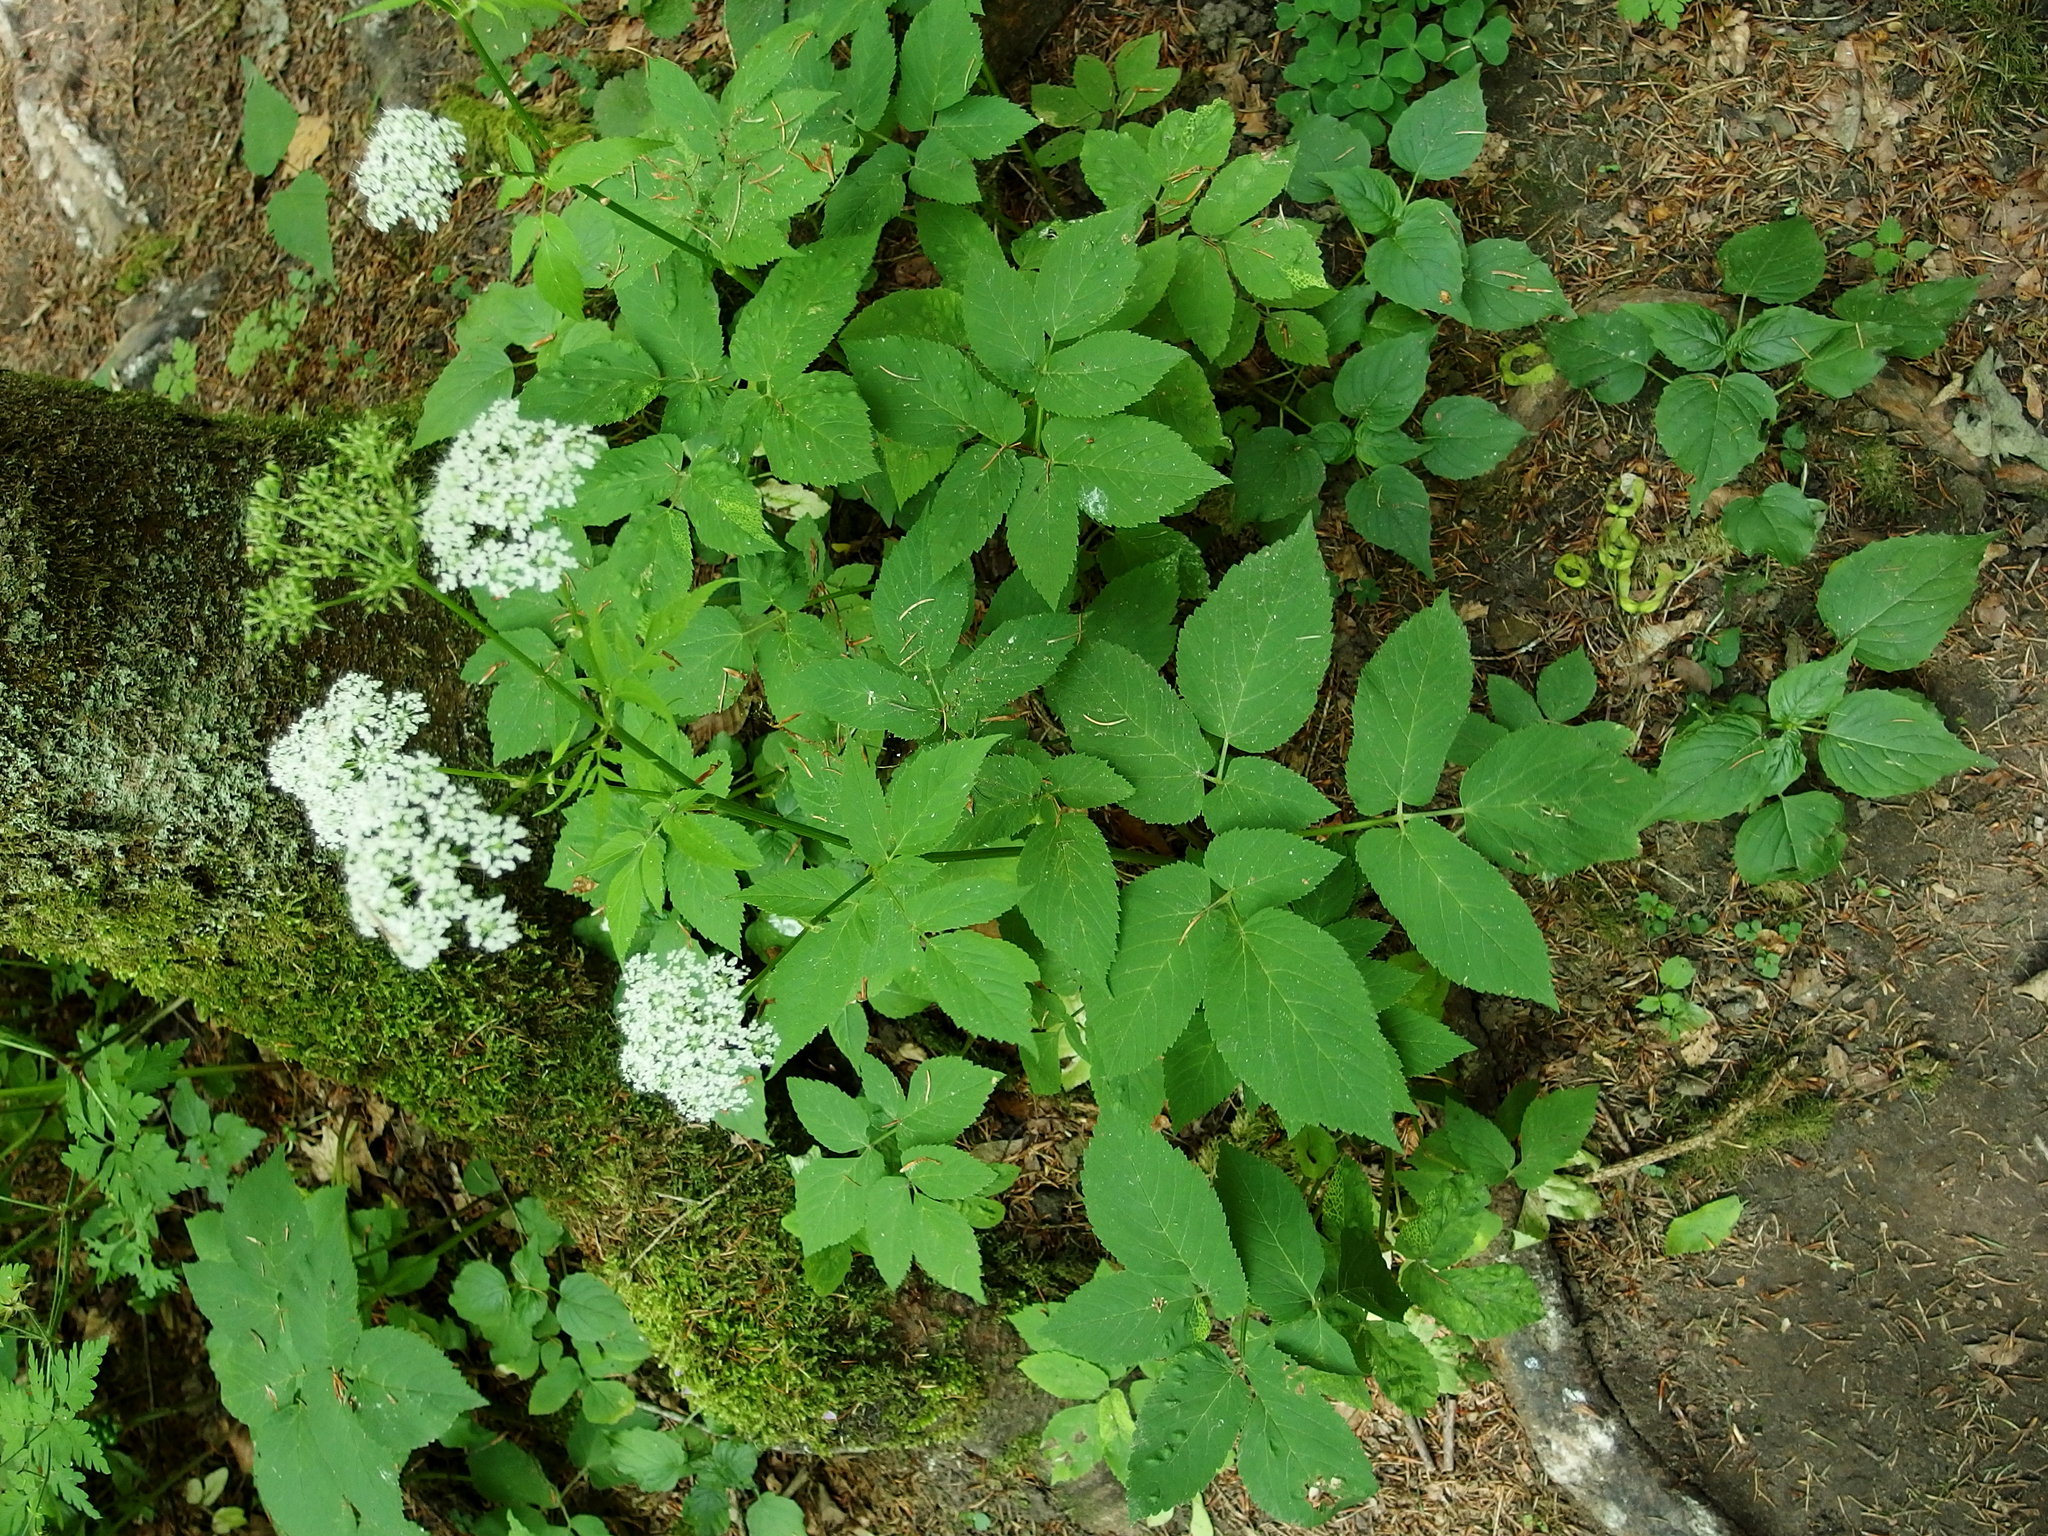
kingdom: Plantae
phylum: Tracheophyta
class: Magnoliopsida
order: Apiales
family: Apiaceae
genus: Aegopodium
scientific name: Aegopodium podagraria
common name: Ground-elder
